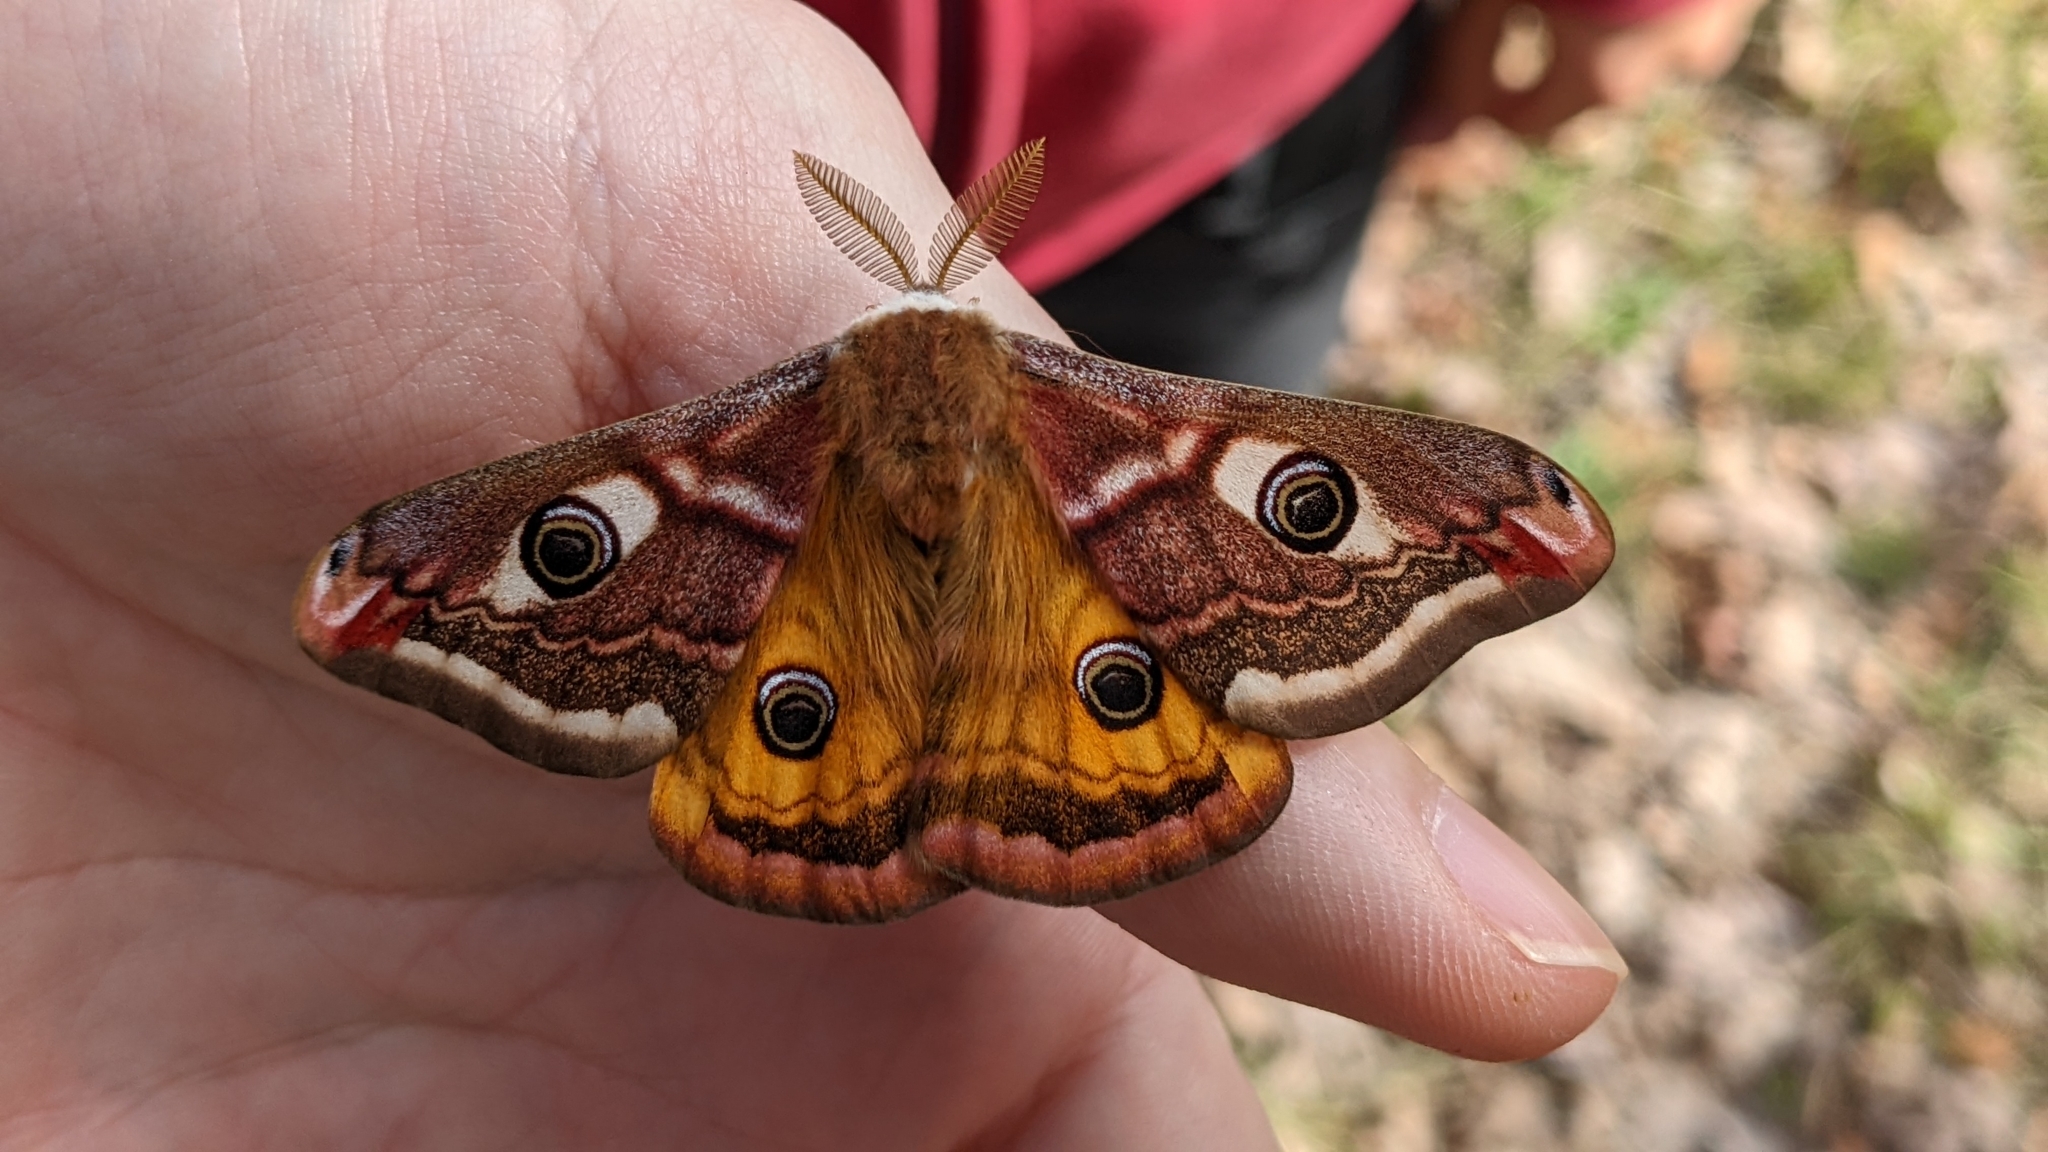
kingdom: Animalia
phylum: Arthropoda
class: Insecta
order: Lepidoptera
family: Saturniidae
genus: Saturnia
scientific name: Saturnia pavonia
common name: Emperor moth
